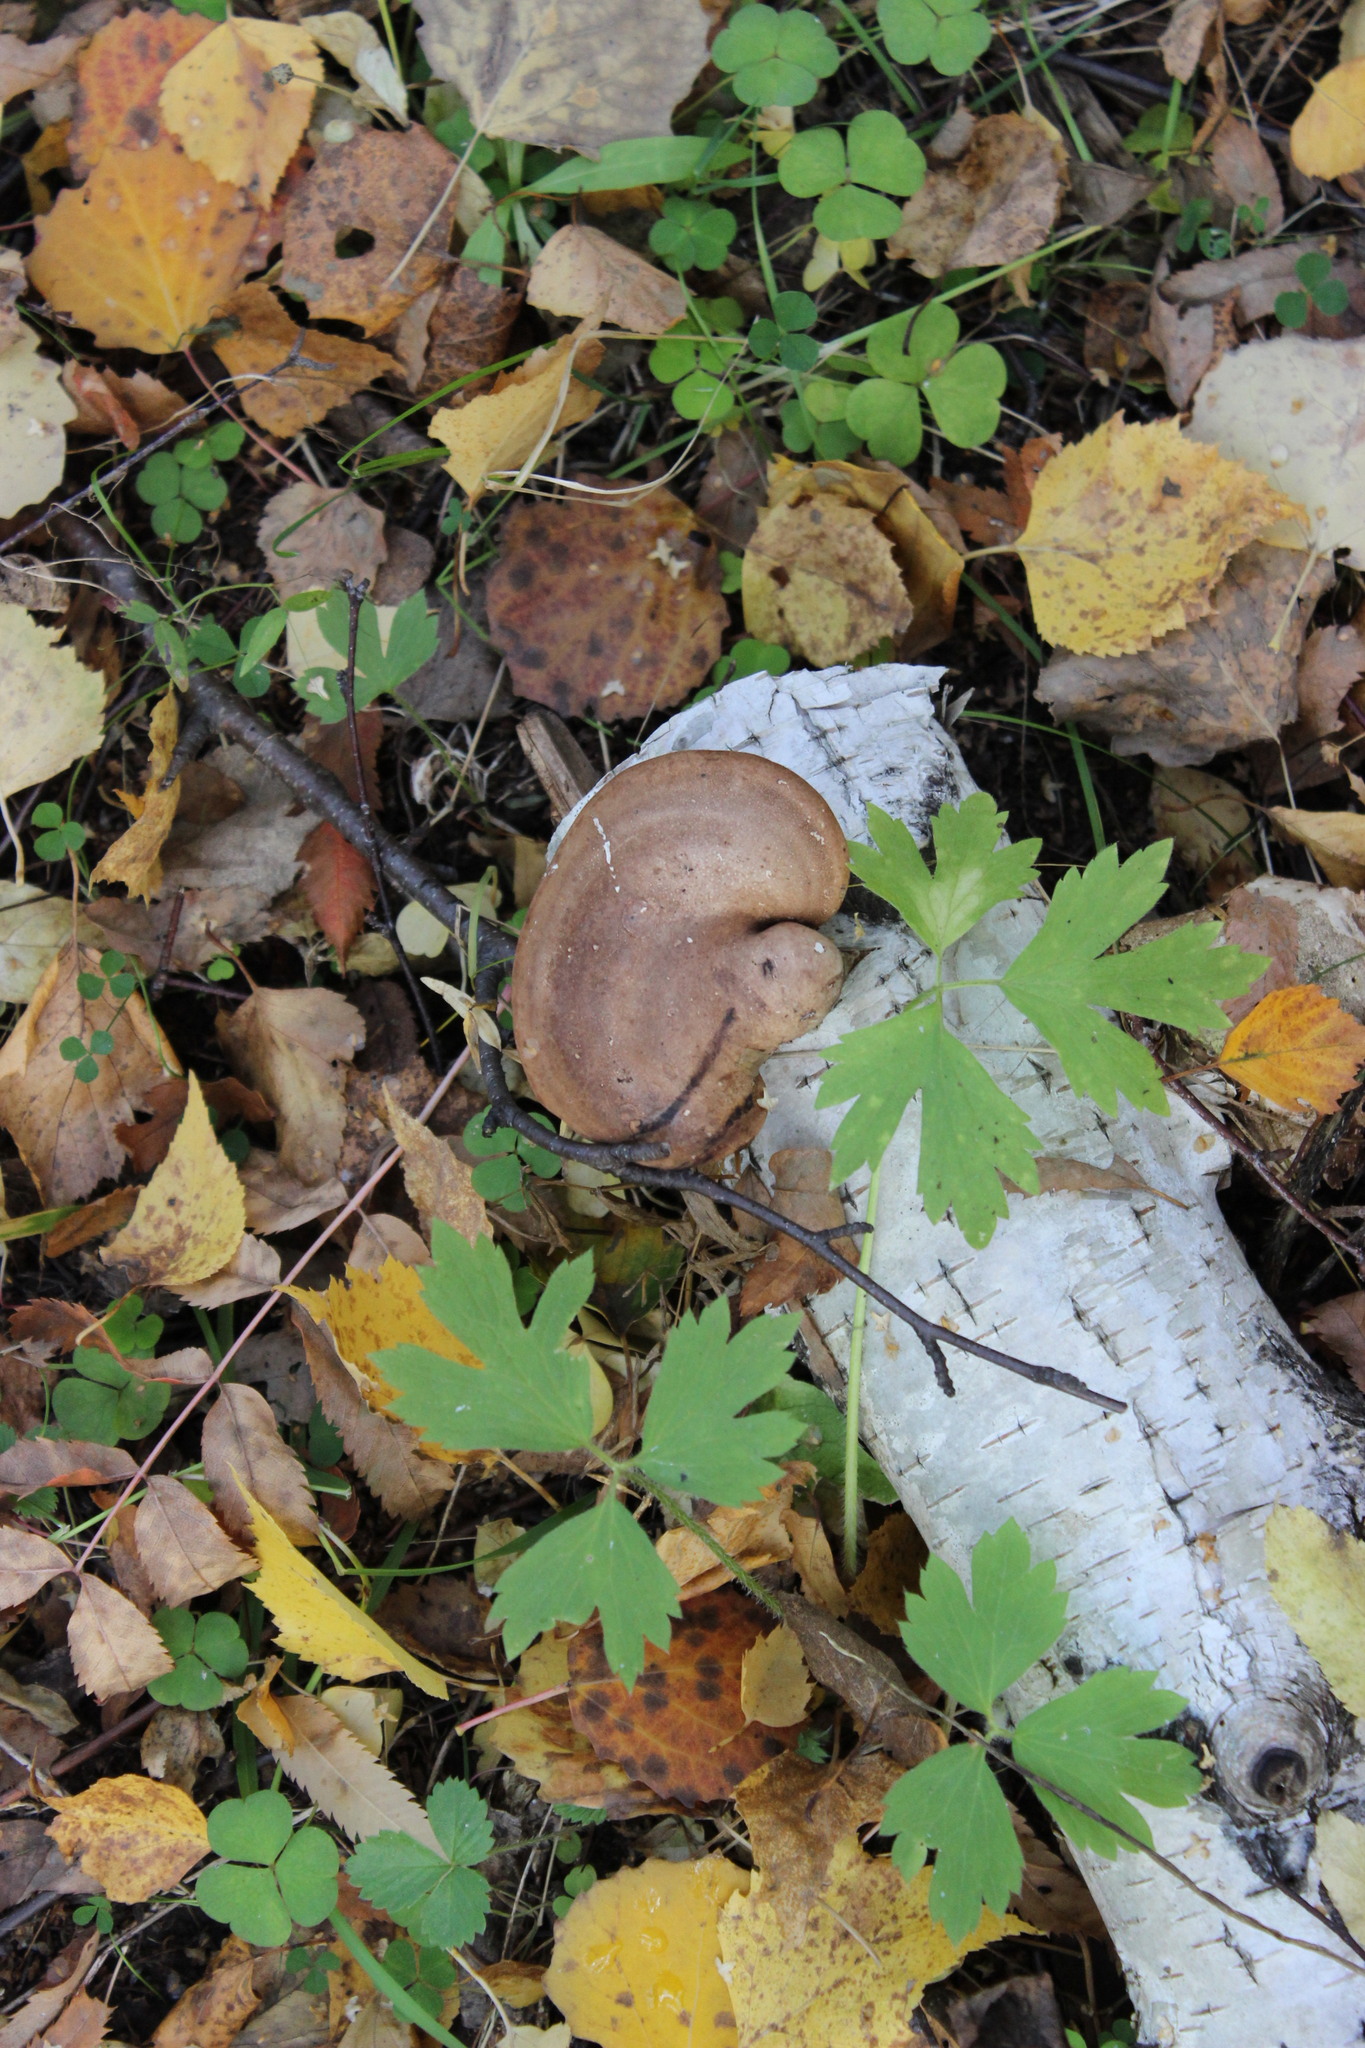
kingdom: Fungi
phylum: Basidiomycota
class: Agaricomycetes
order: Polyporales
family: Fomitopsidaceae
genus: Fomitopsis
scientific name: Fomitopsis betulina
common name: Birch polypore
